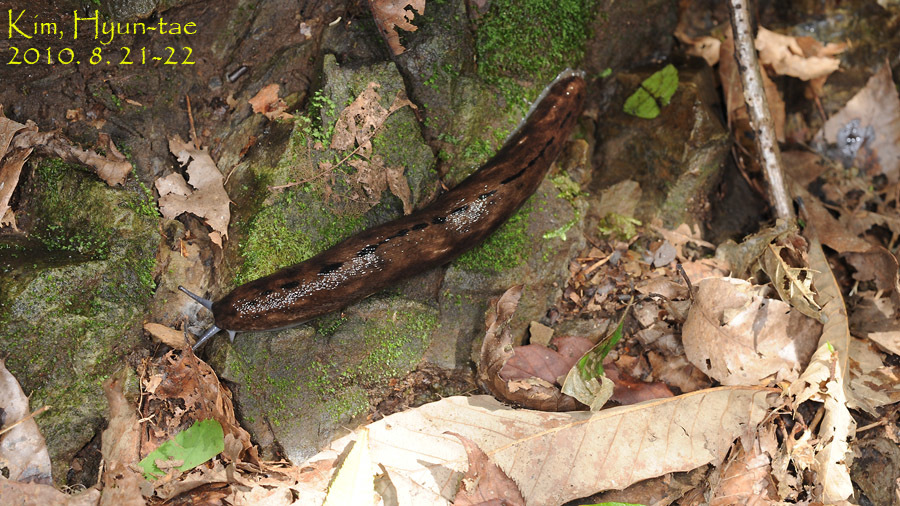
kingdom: Animalia
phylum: Mollusca
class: Gastropoda
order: Stylommatophora
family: Philomycidae
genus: Meghimatium
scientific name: Meghimatium fruhstorferi
